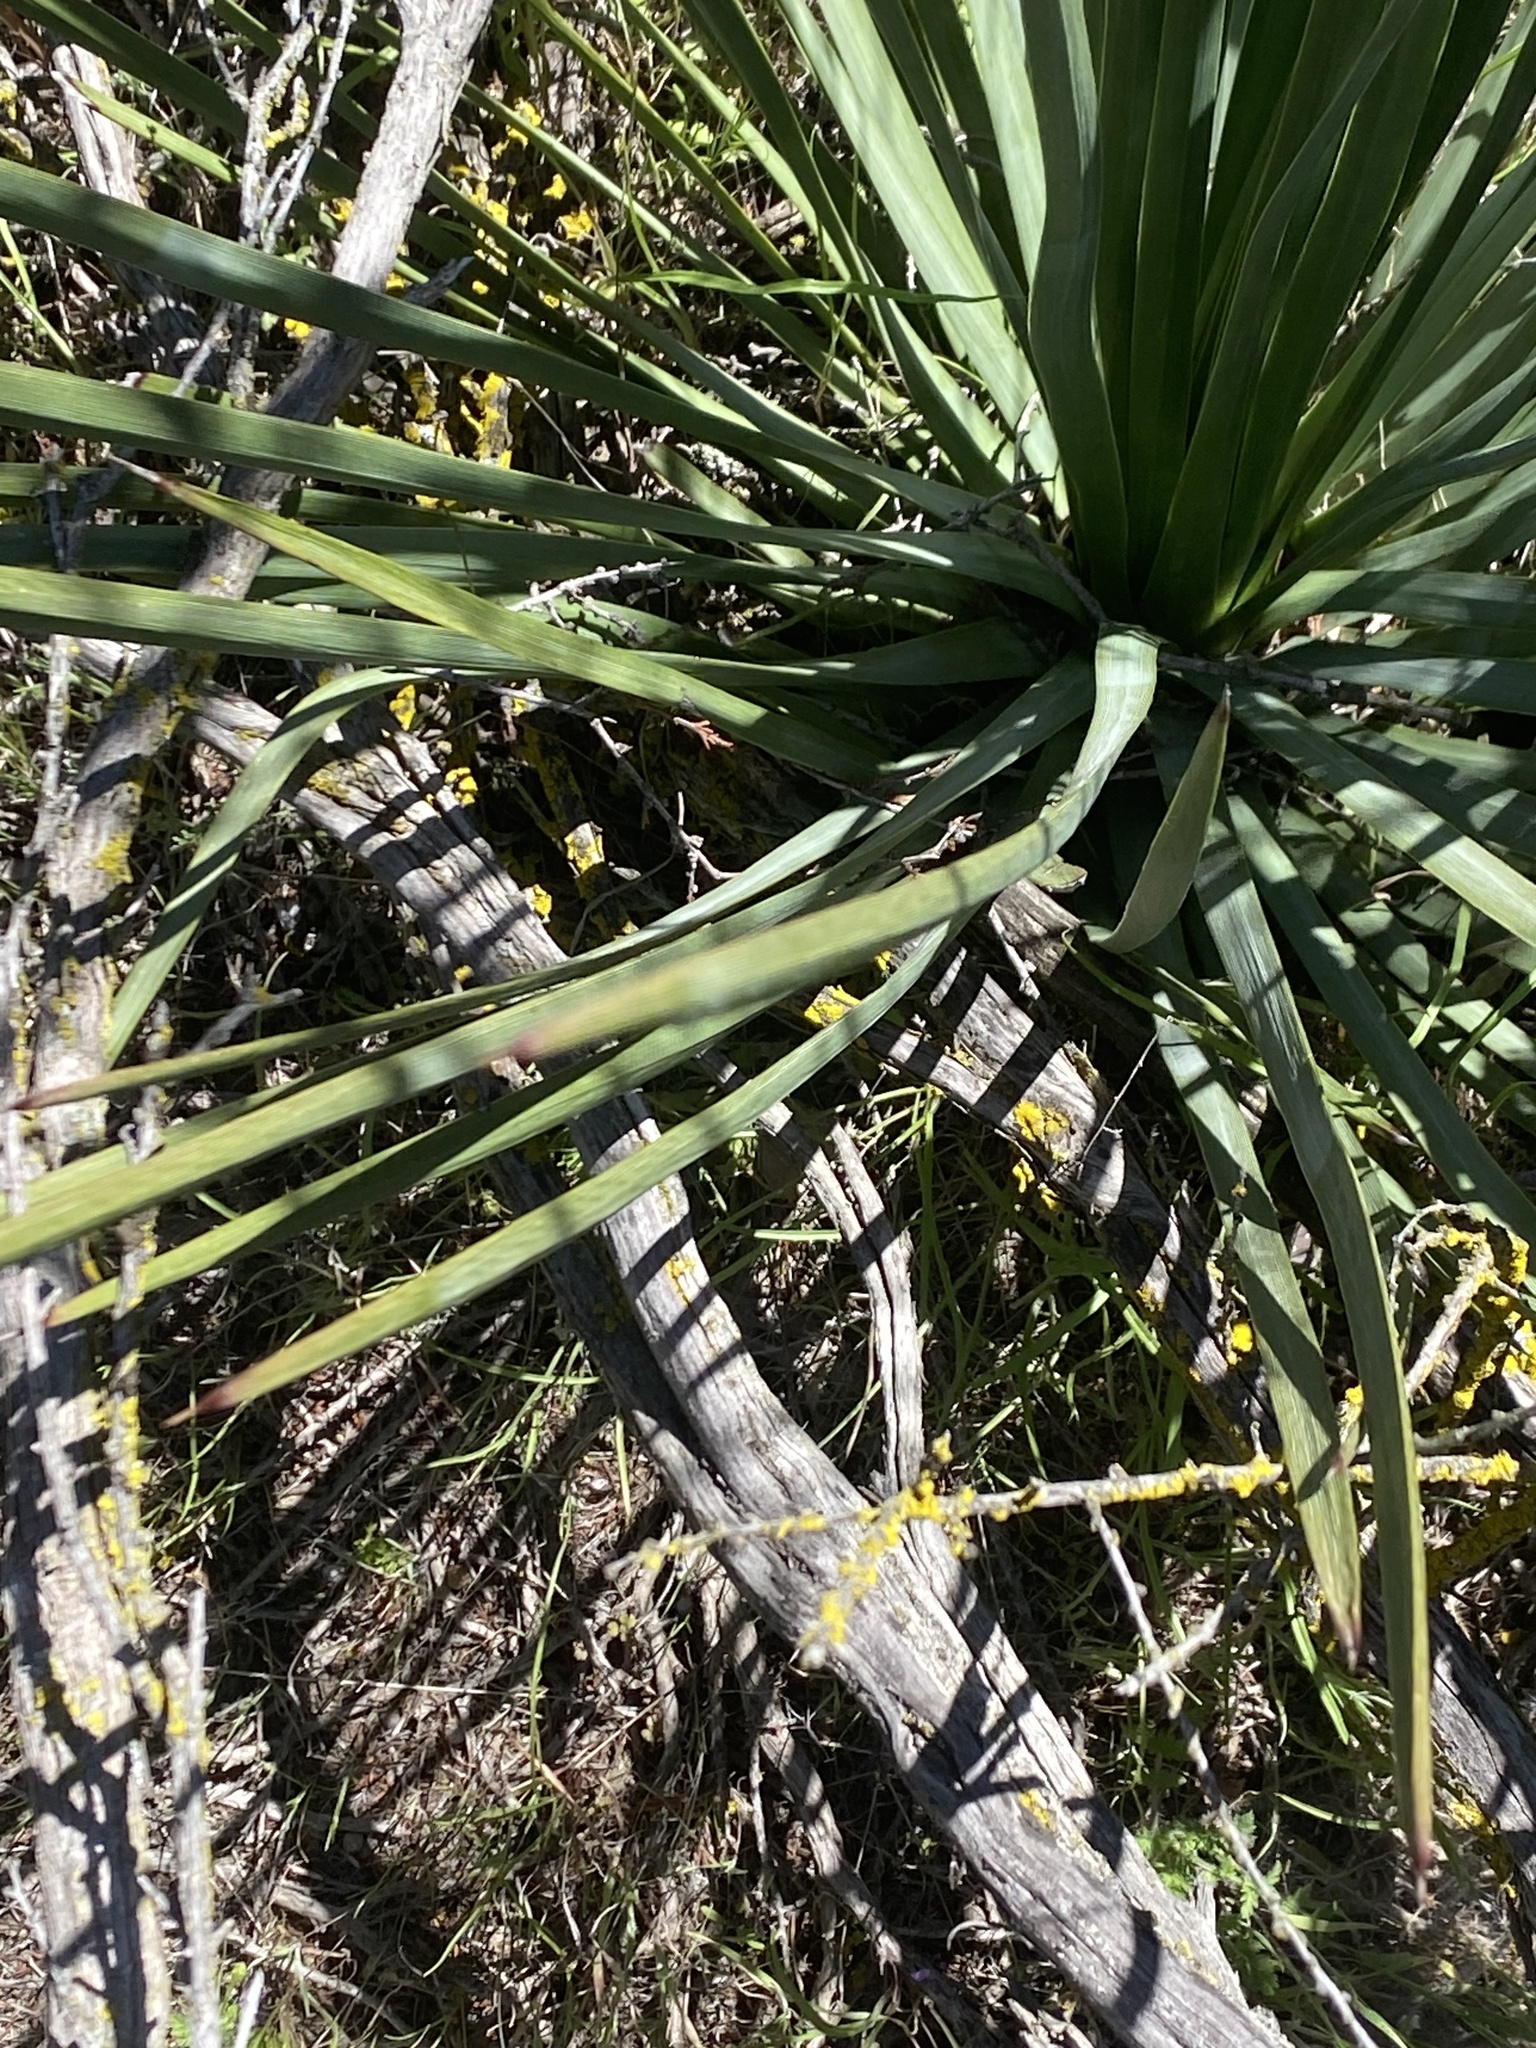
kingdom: Plantae
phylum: Tracheophyta
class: Liliopsida
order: Asparagales
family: Asparagaceae
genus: Hesperoyucca
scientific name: Hesperoyucca whipplei
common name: Our lord's-candle
